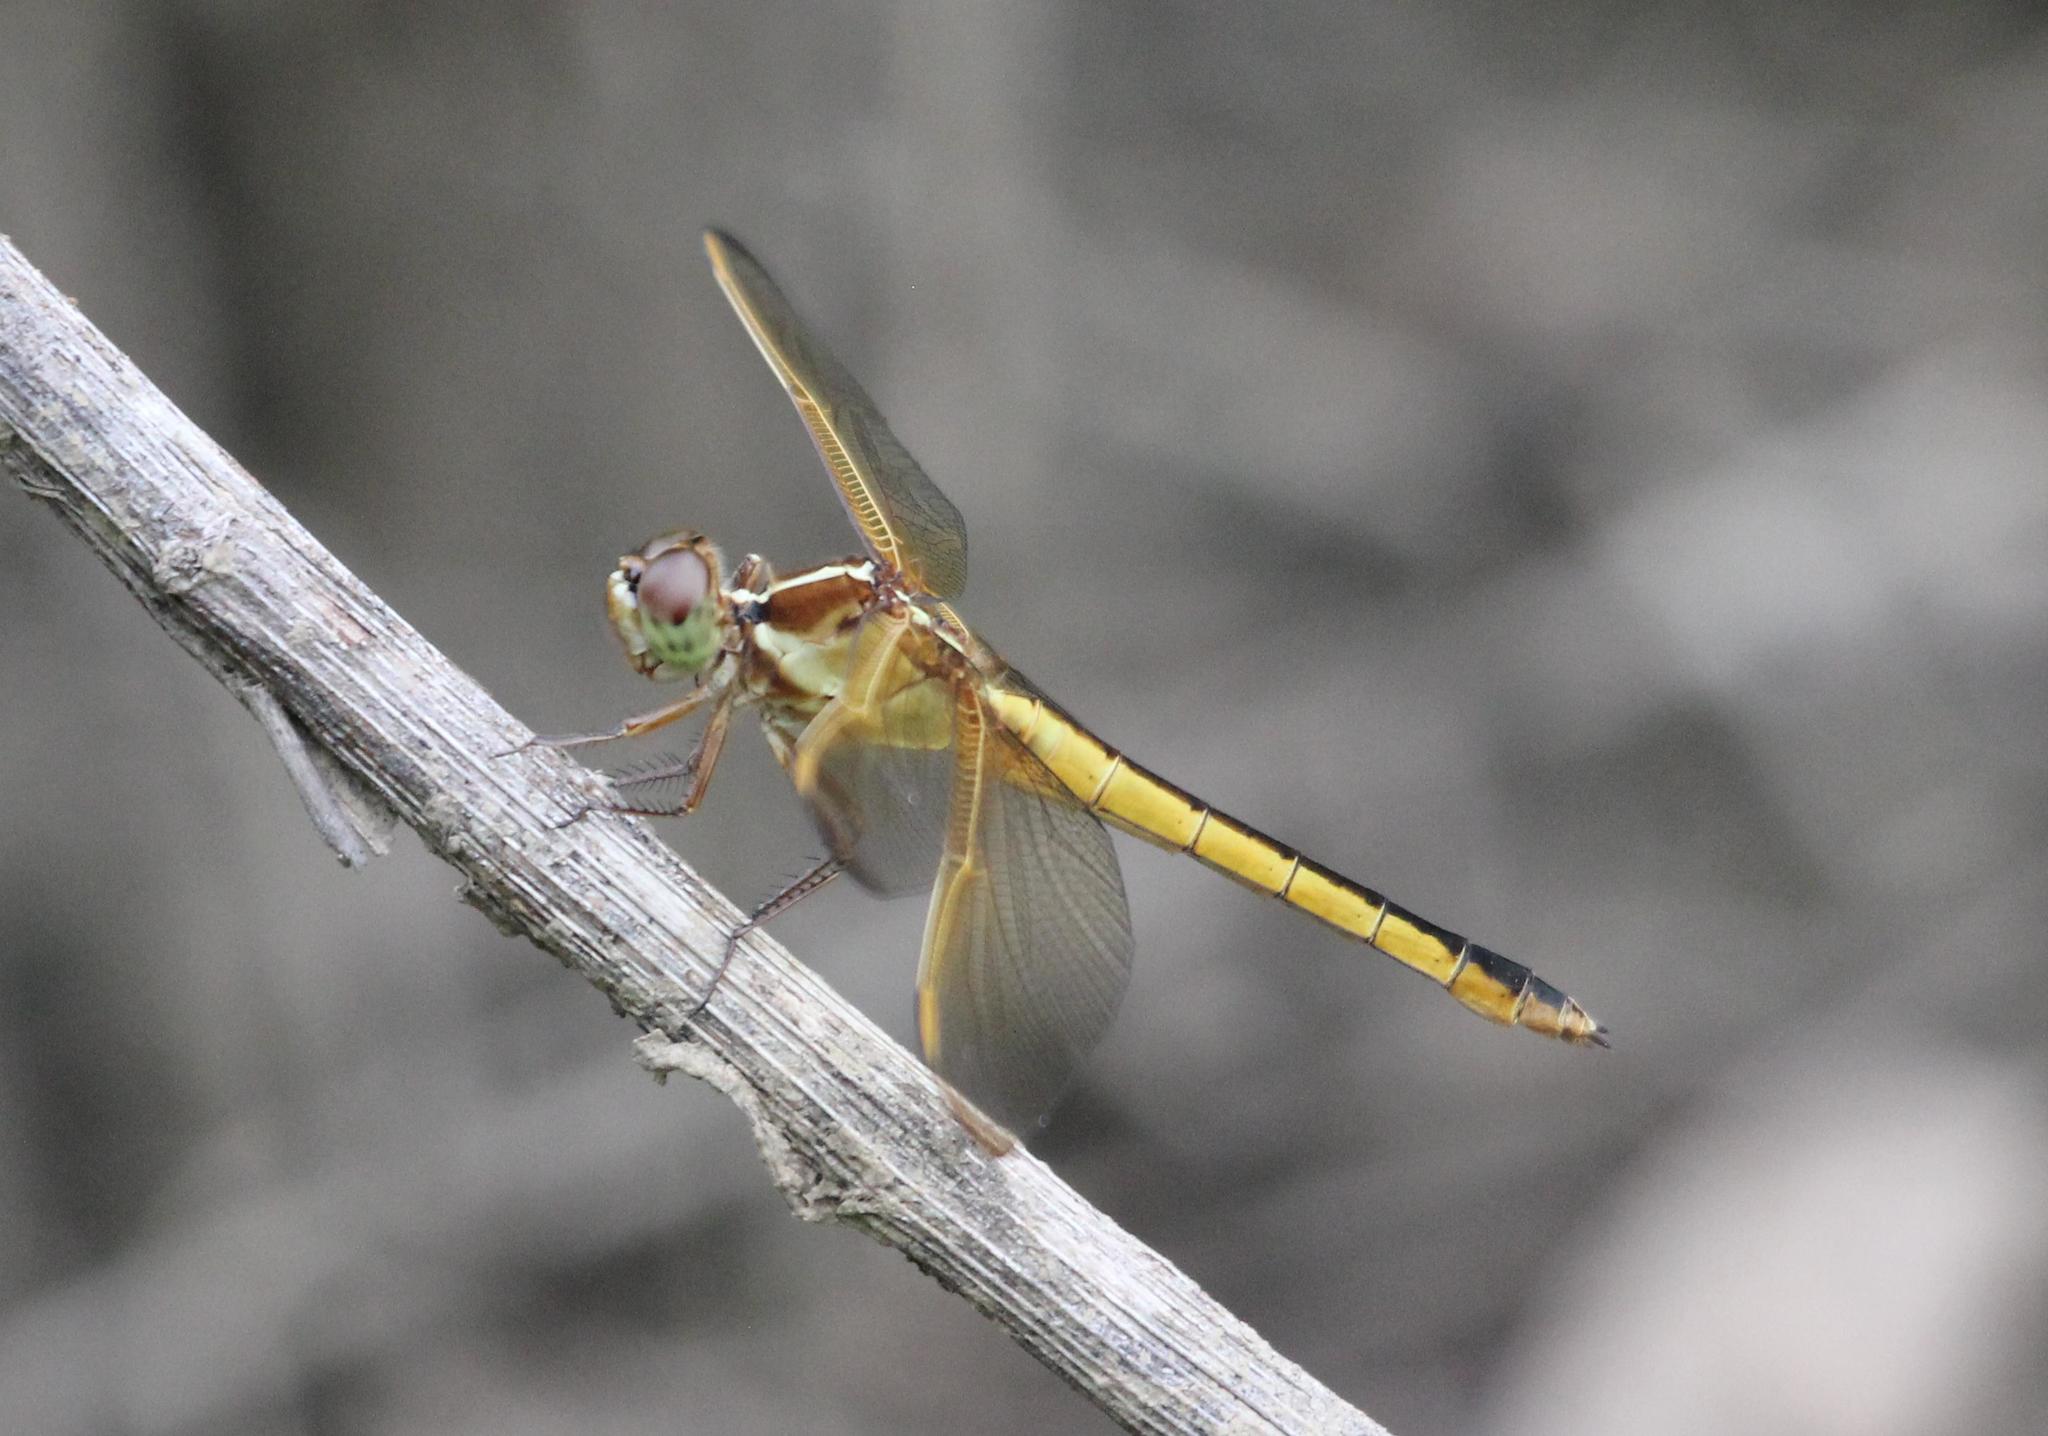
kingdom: Animalia
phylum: Arthropoda
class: Insecta
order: Odonata
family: Libellulidae
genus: Libellula
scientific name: Libellula needhami
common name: Needham's skimmer
